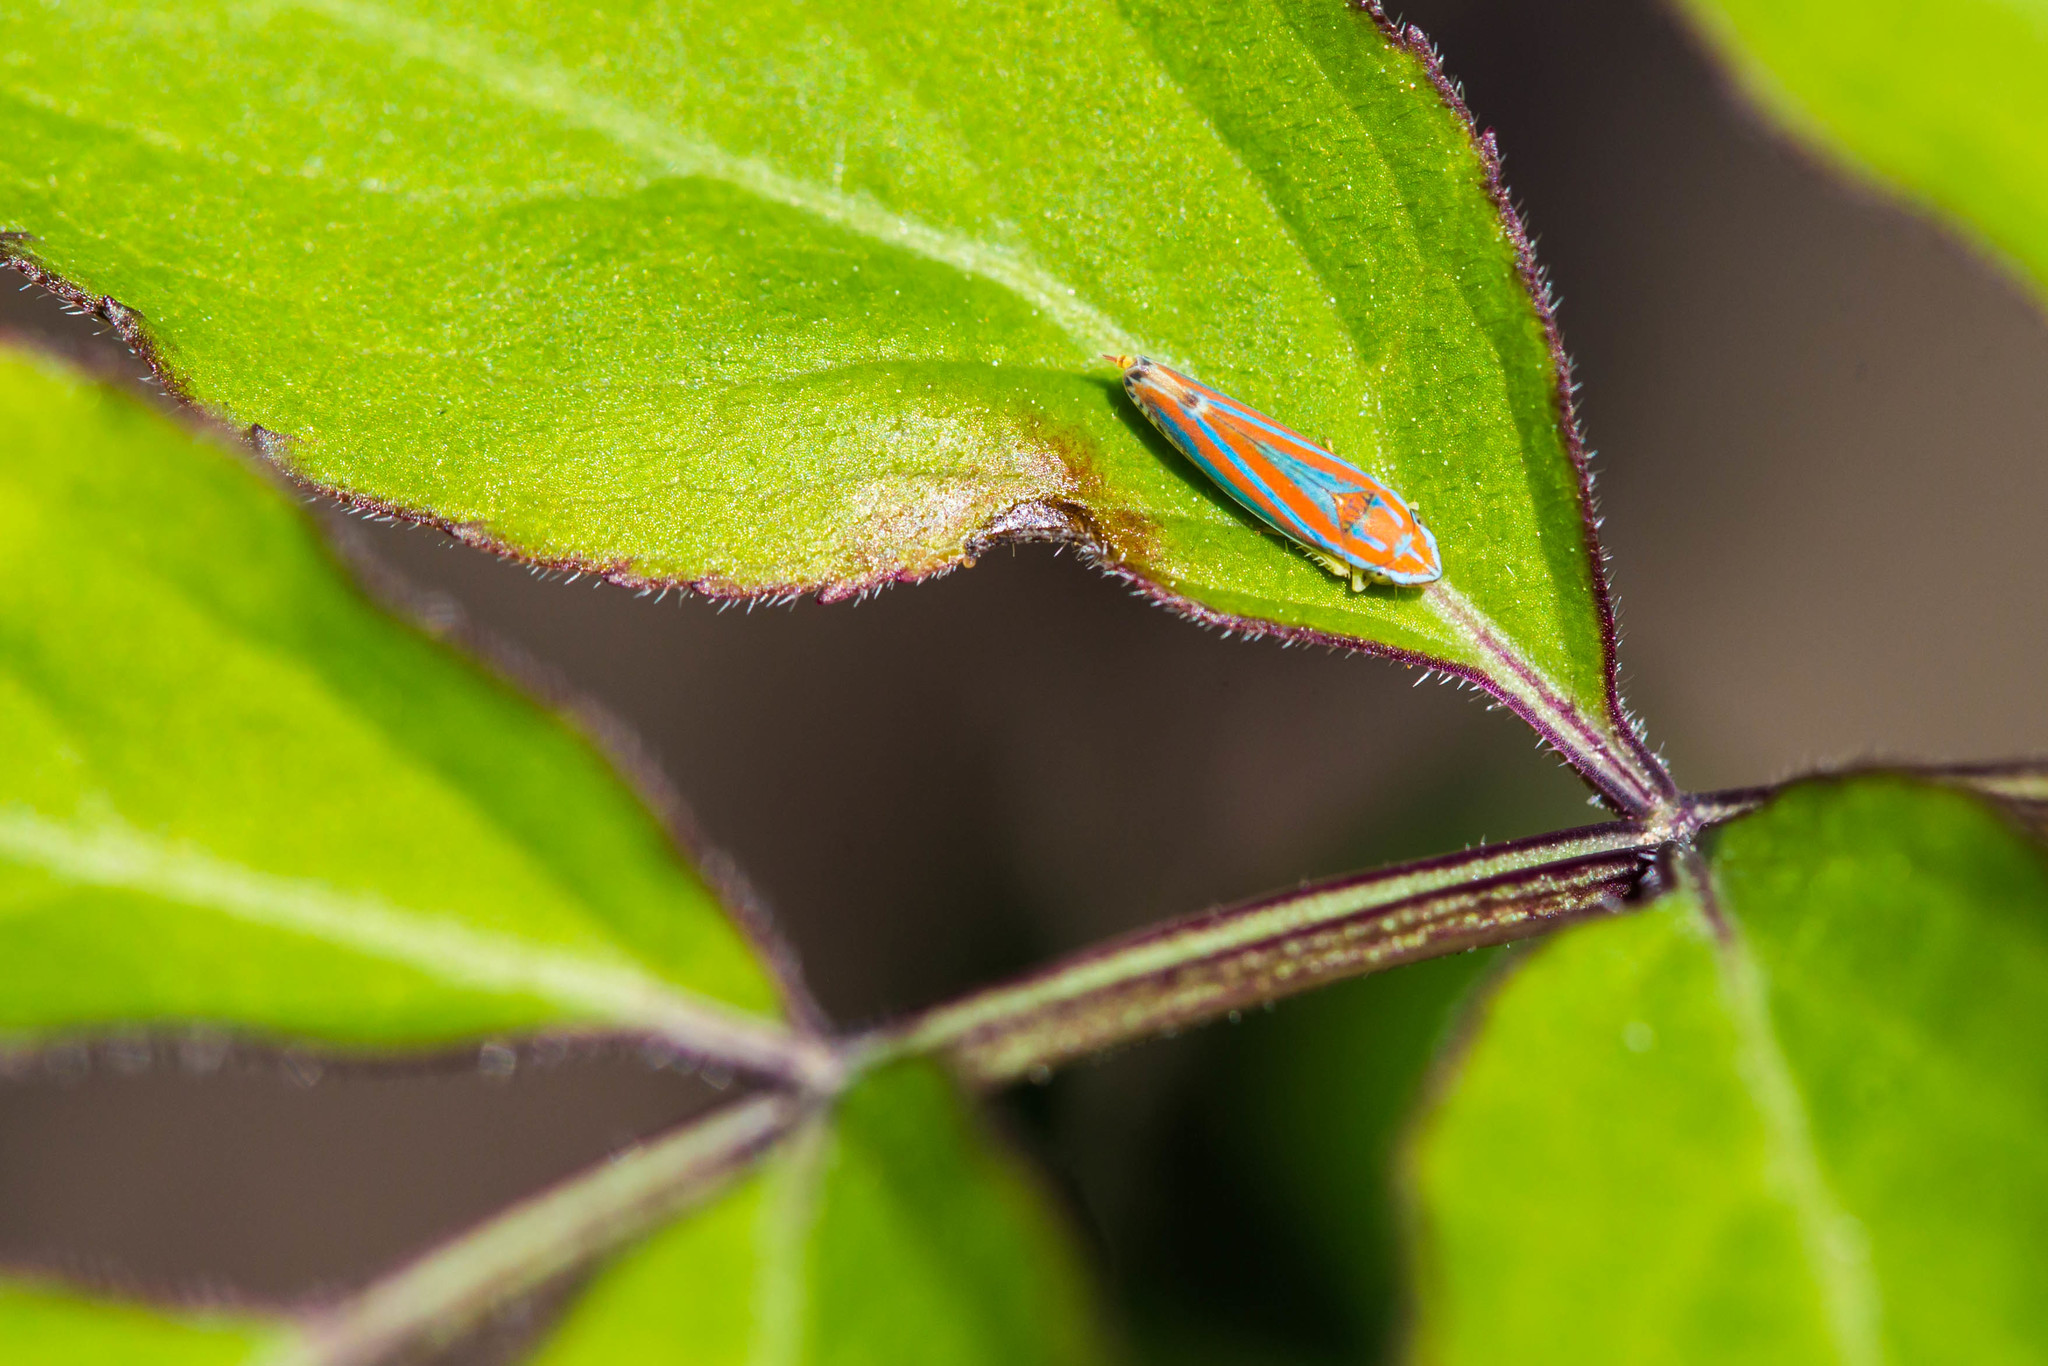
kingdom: Animalia
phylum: Arthropoda
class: Insecta
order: Hemiptera
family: Cicadellidae
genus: Graphocephala
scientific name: Graphocephala versuta
